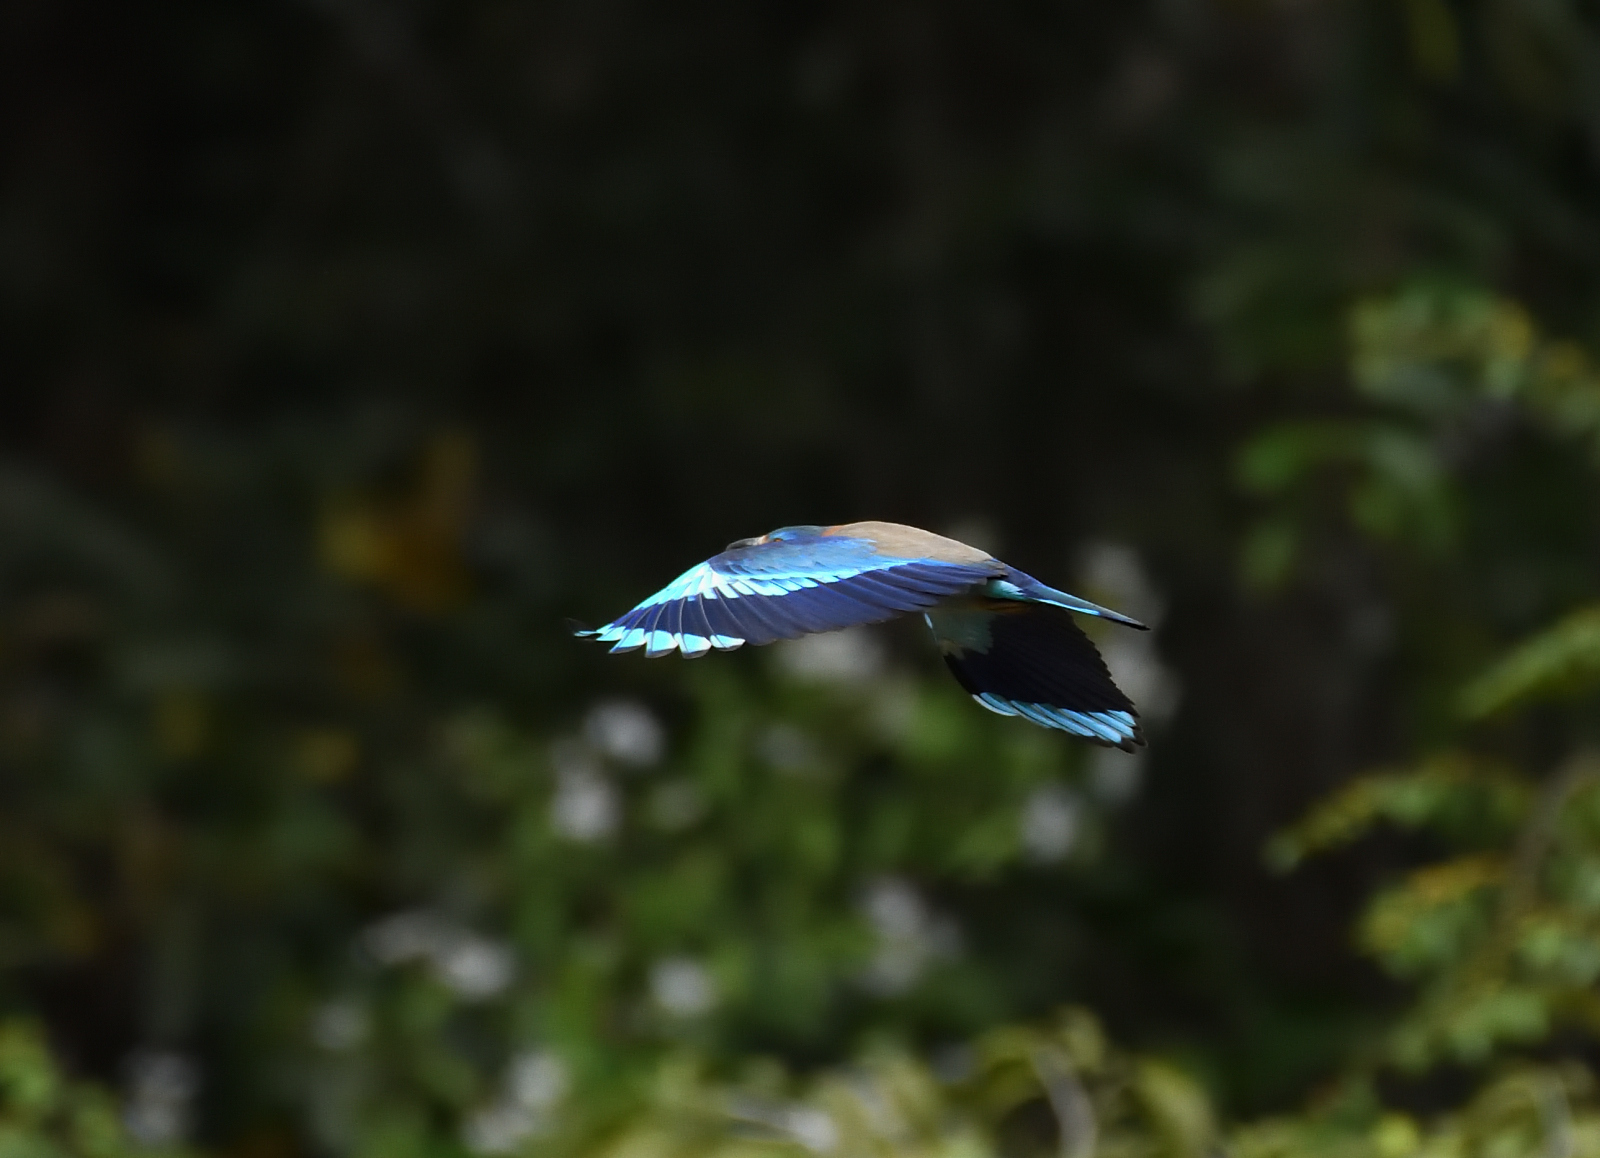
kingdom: Animalia
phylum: Chordata
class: Aves
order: Coraciiformes
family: Coraciidae
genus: Coracias
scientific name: Coracias benghalensis
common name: Indian roller
